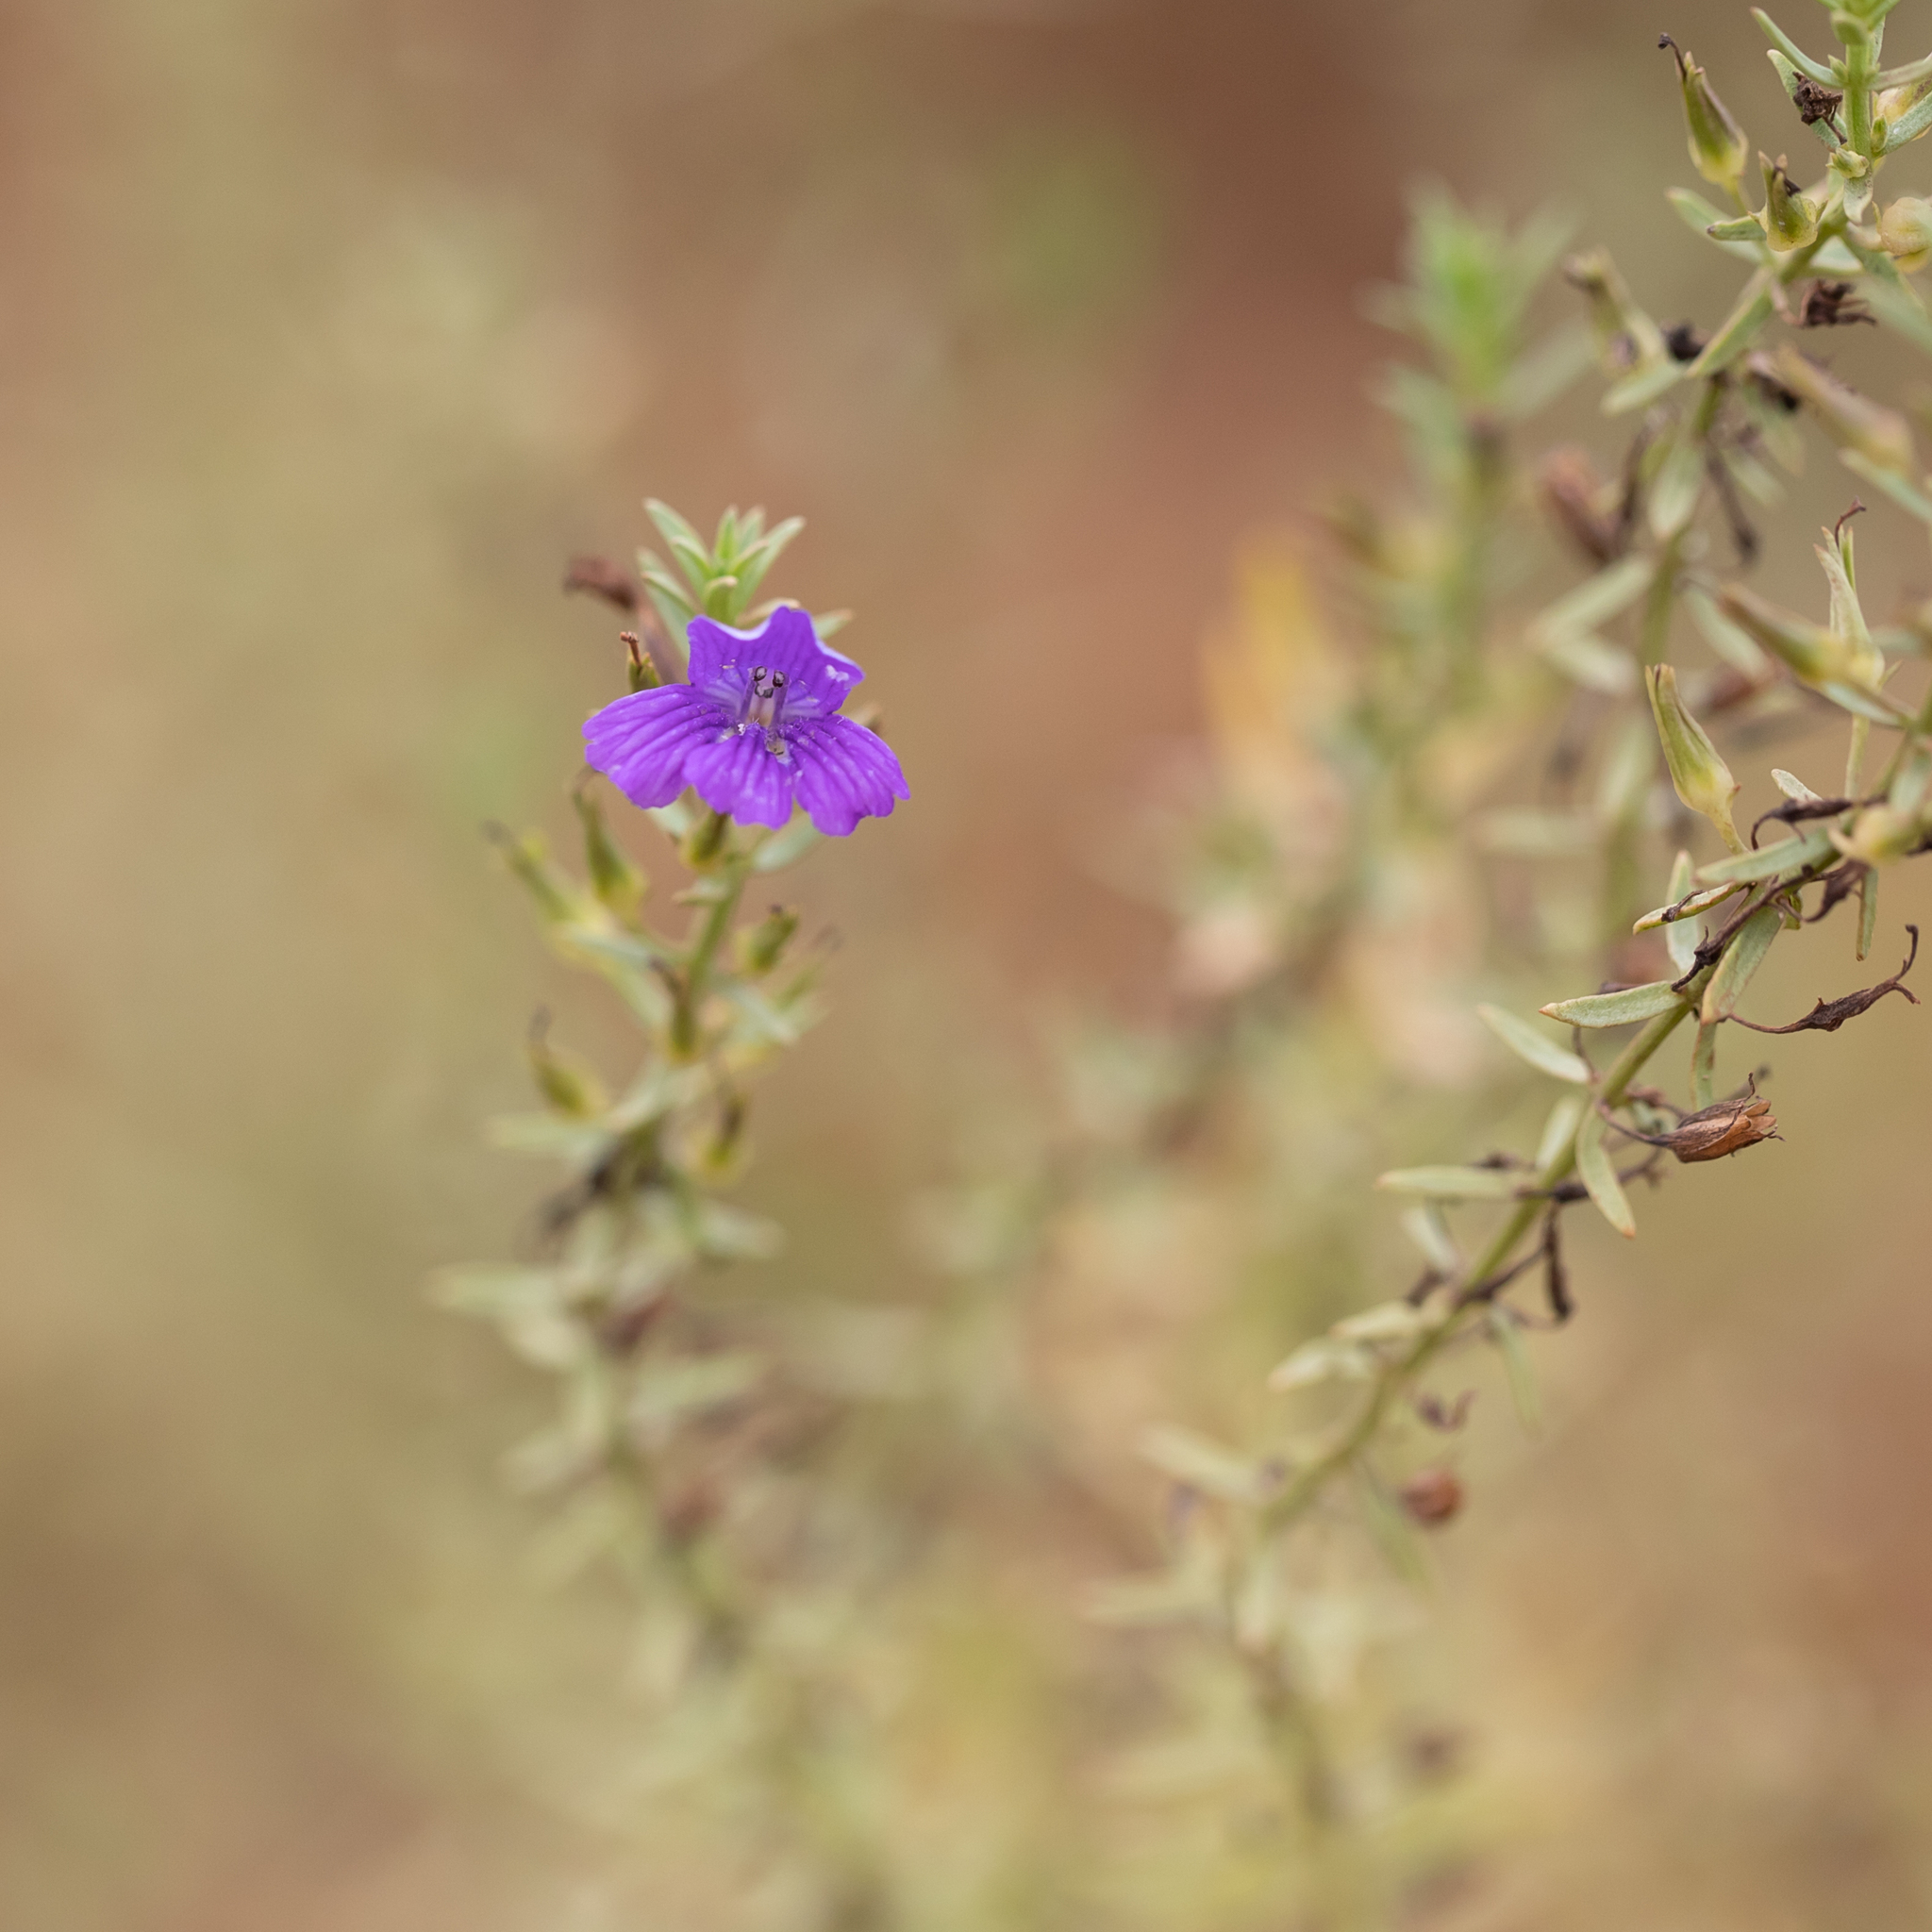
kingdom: Plantae
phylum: Tracheophyta
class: Magnoliopsida
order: Lamiales
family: Plantaginaceae
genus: Stemodia
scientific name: Stemodia florulenta
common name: Bluerod
